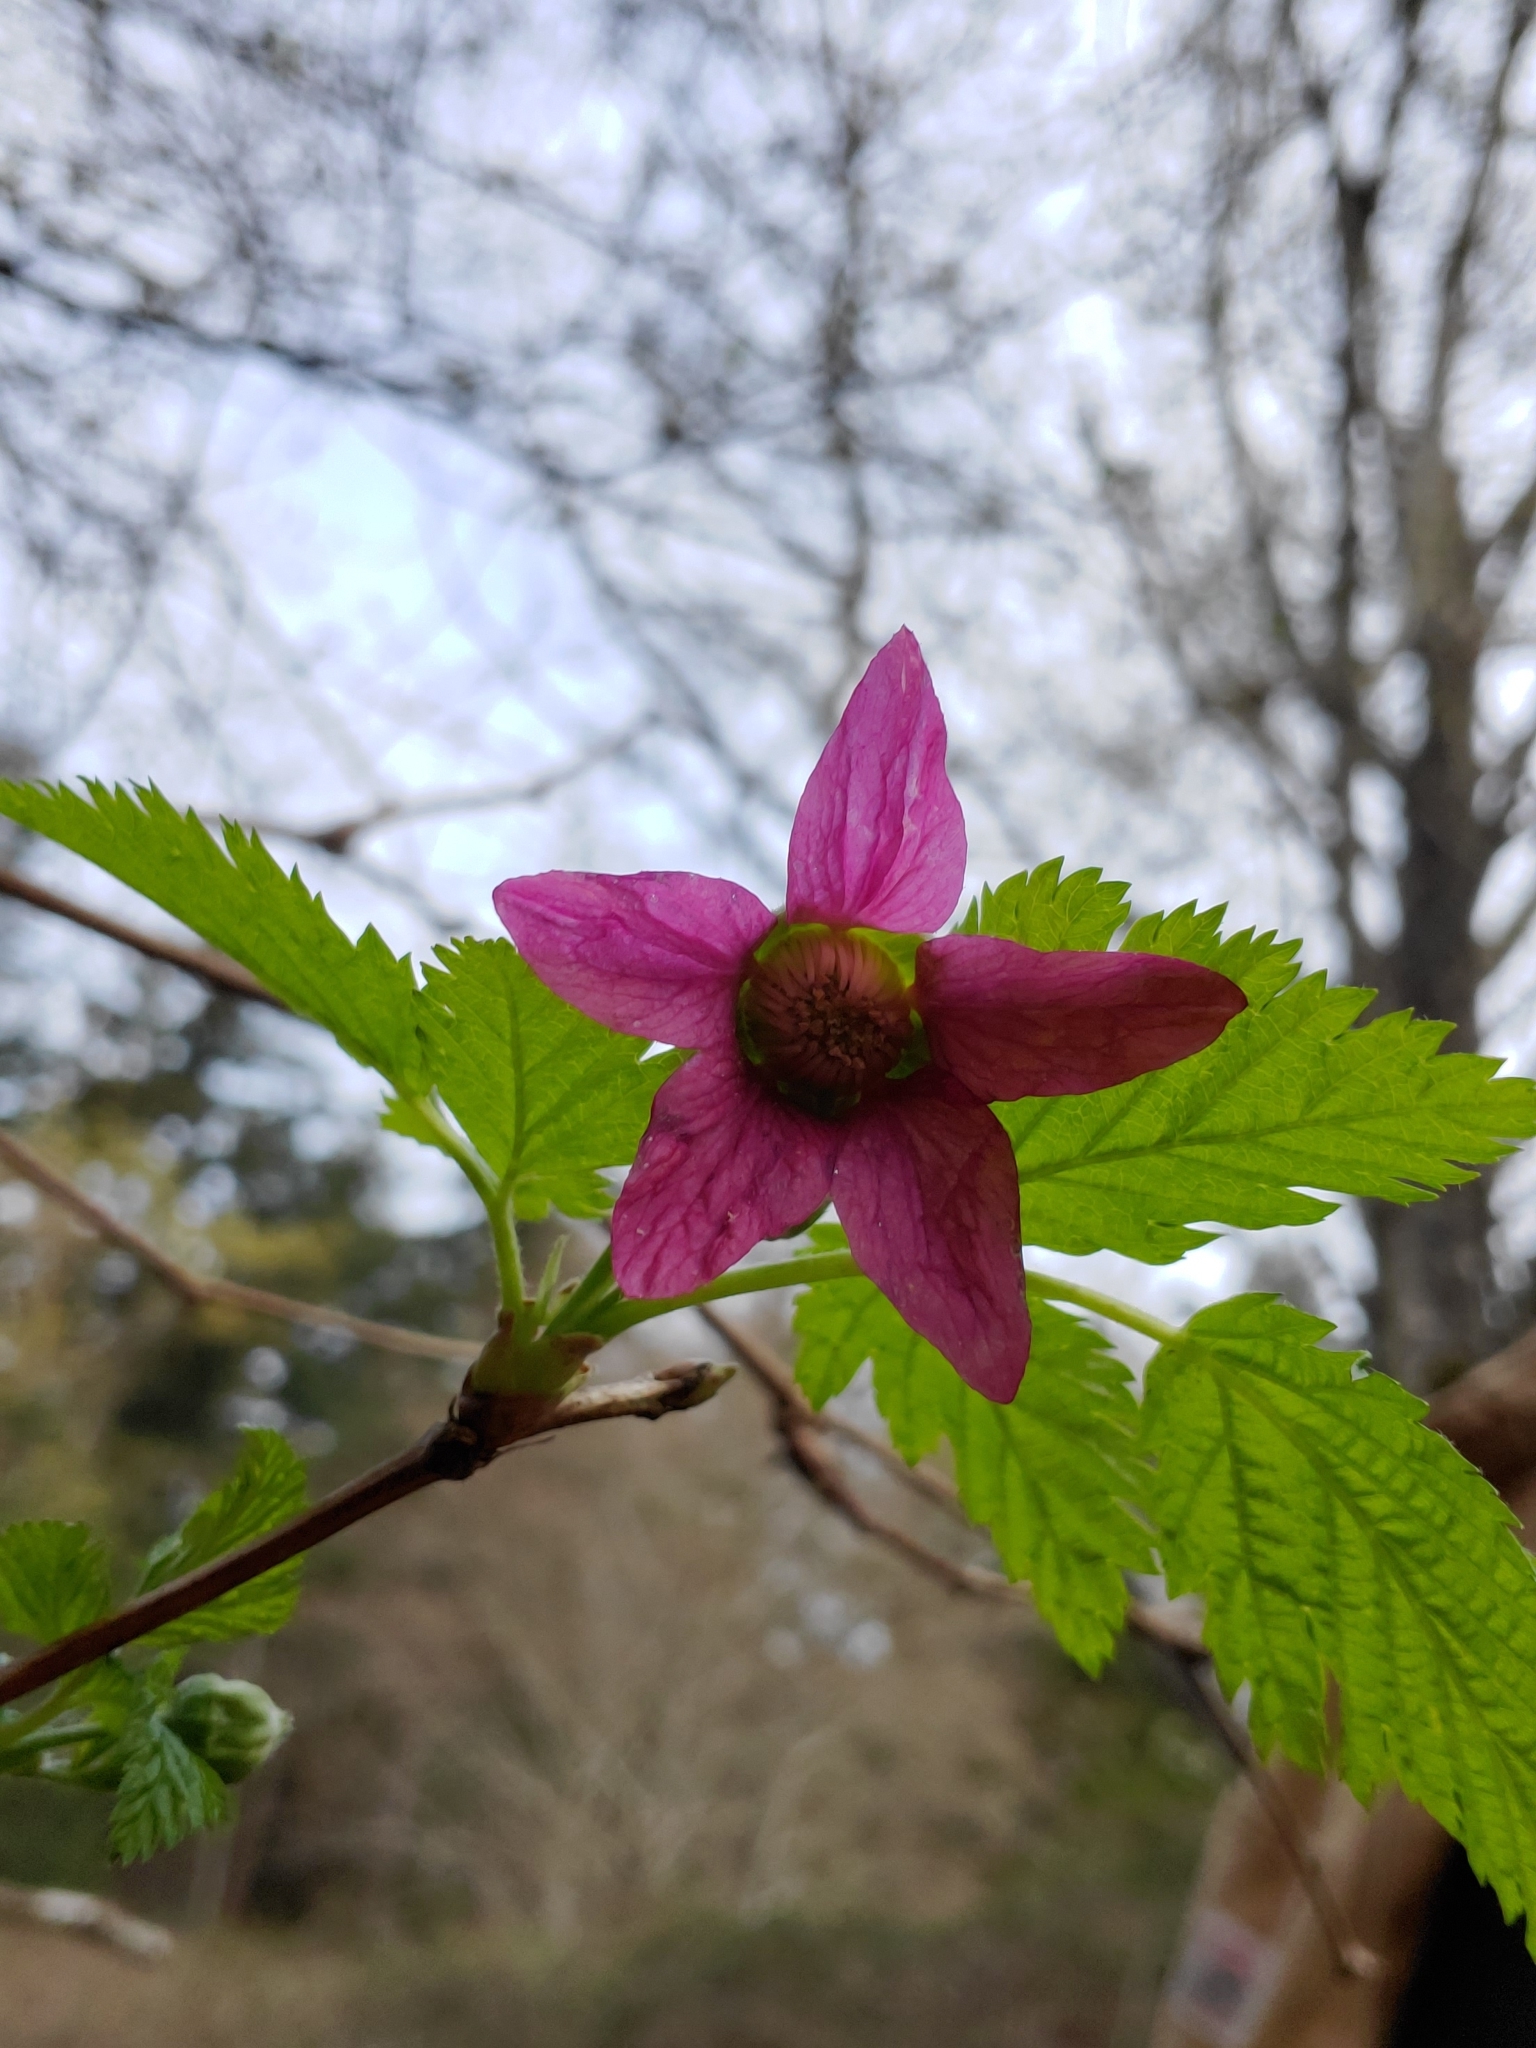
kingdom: Plantae
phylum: Tracheophyta
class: Magnoliopsida
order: Rosales
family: Rosaceae
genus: Rubus
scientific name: Rubus spectabilis
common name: Salmonberry
